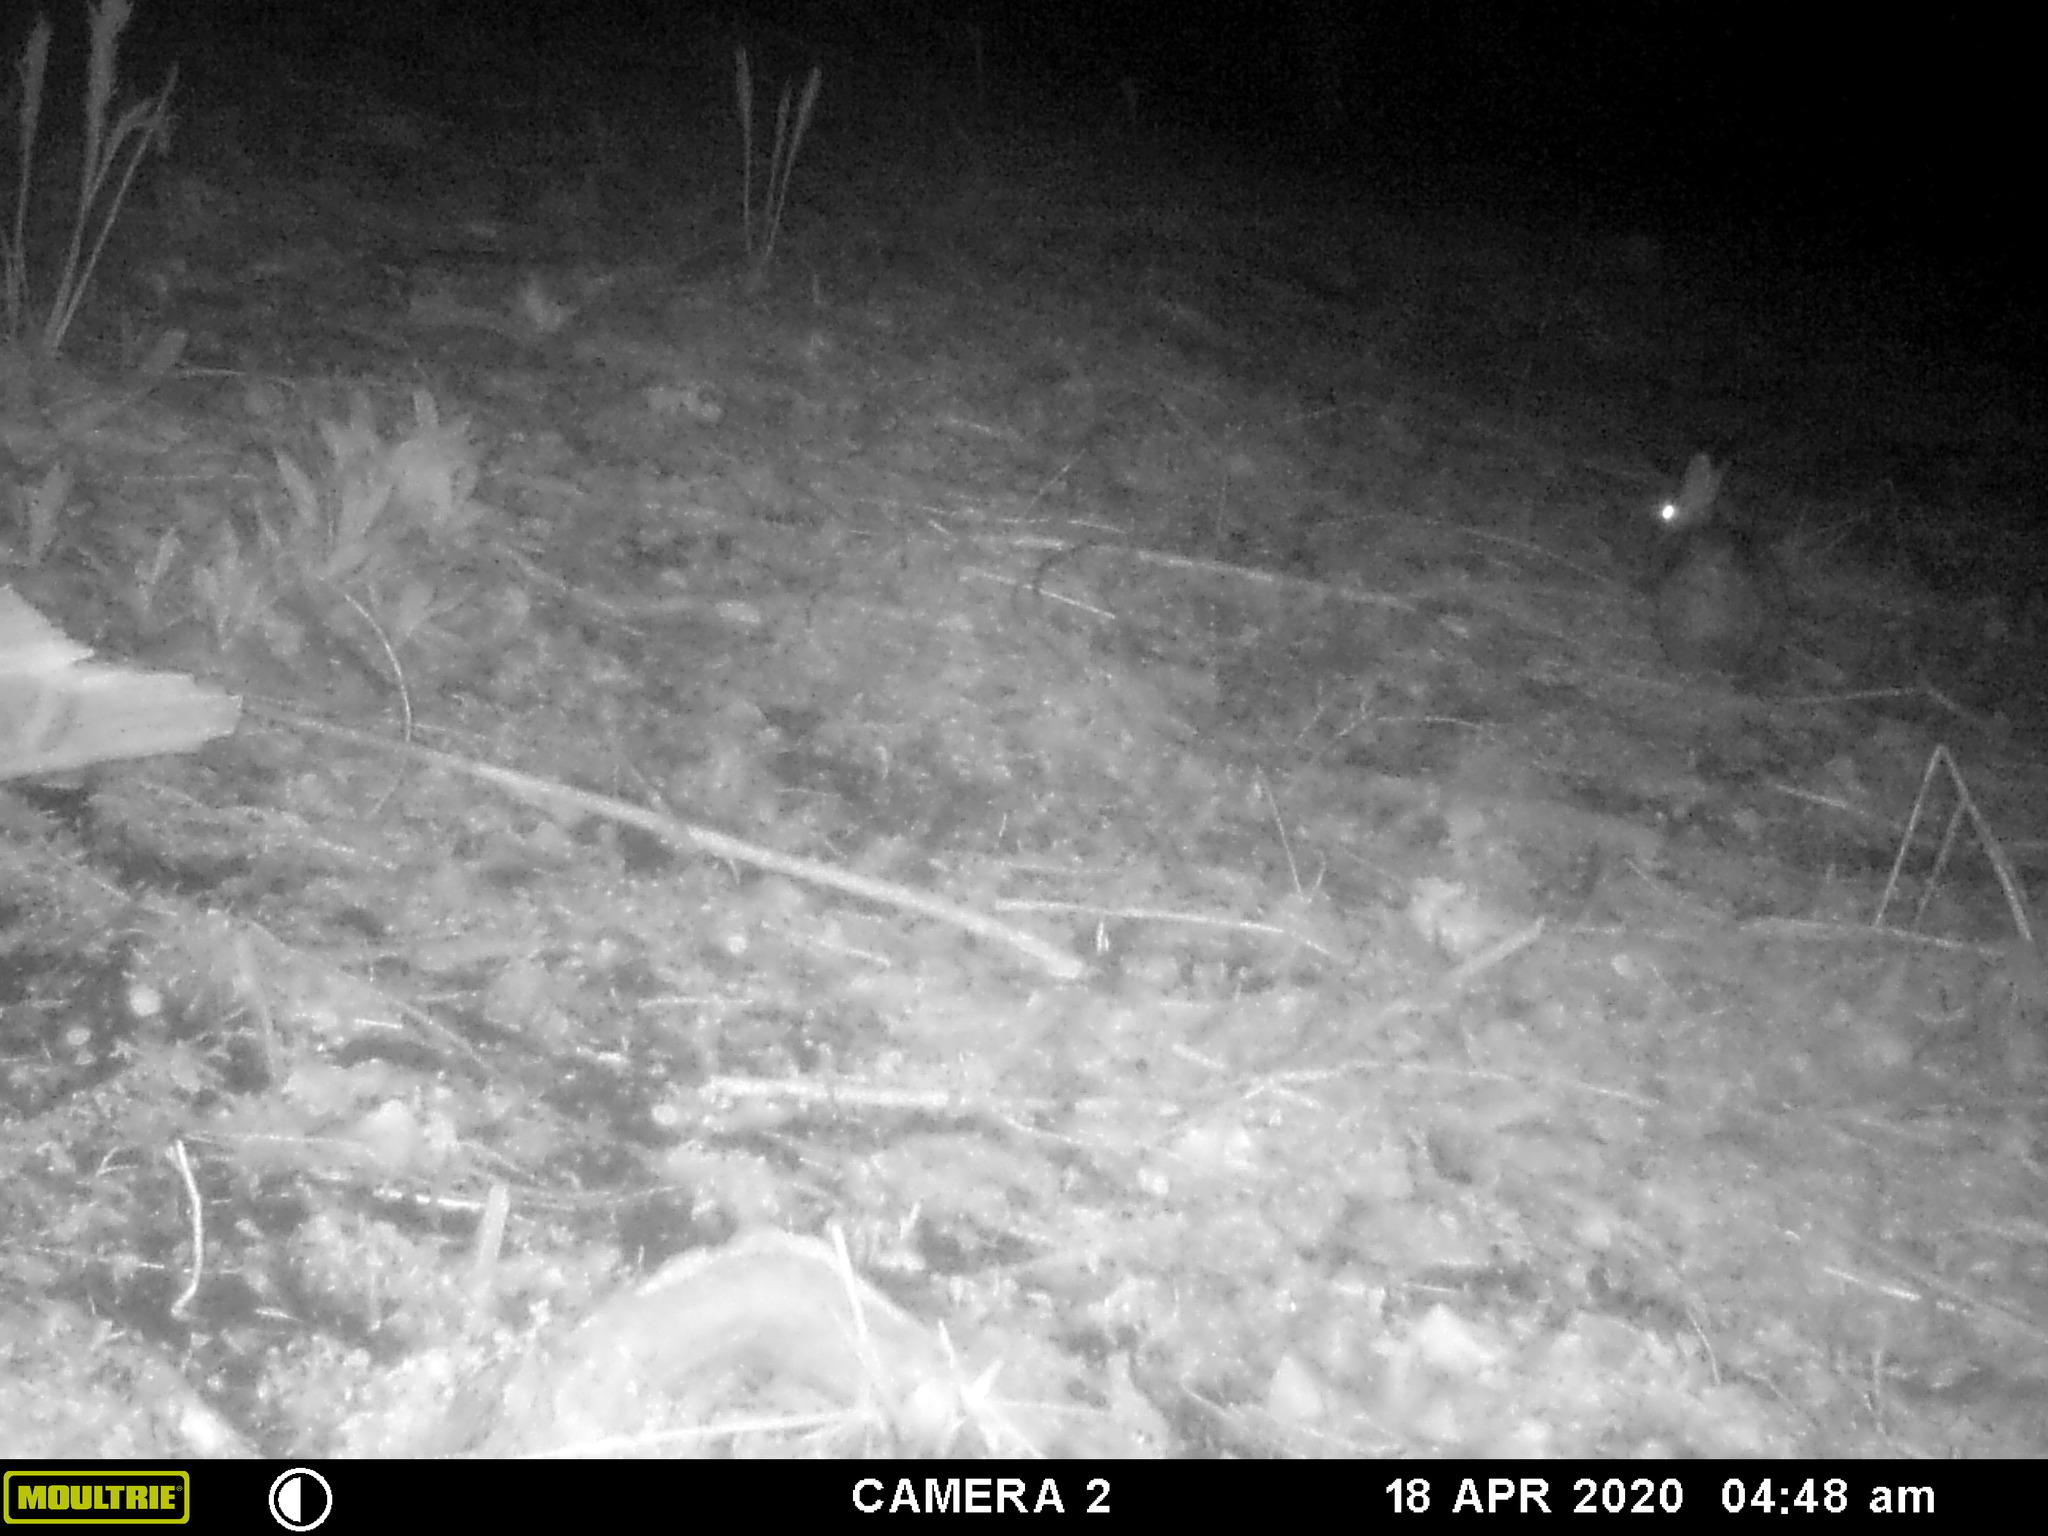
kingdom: Animalia
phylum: Chordata
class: Mammalia
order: Lagomorpha
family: Leporidae
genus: Sylvilagus
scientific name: Sylvilagus floridanus
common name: Eastern cottontail
